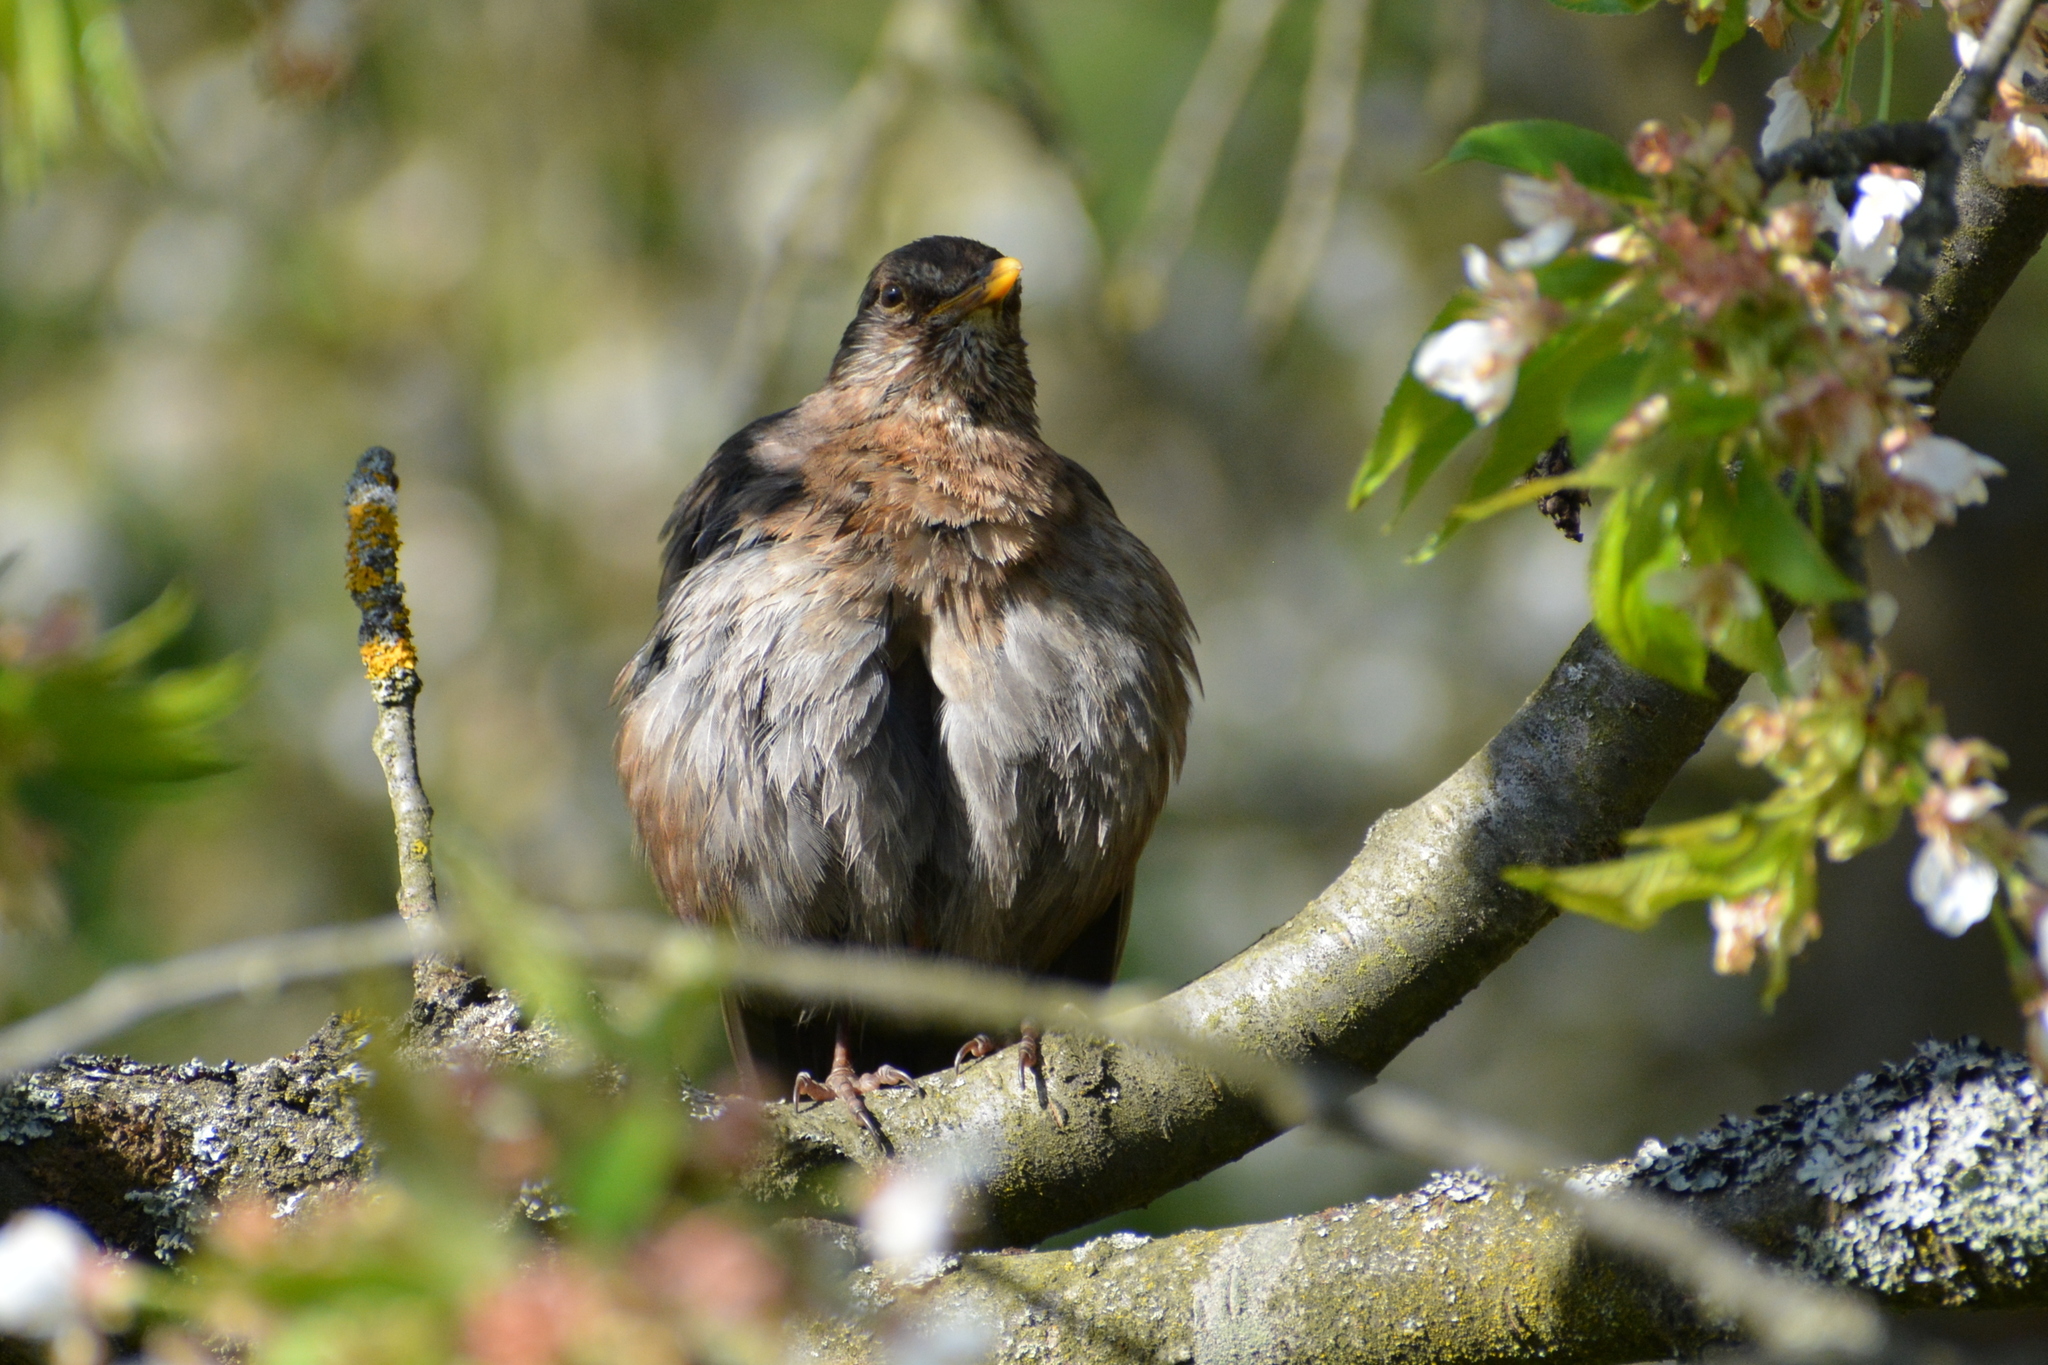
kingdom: Animalia
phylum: Chordata
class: Aves
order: Passeriformes
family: Turdidae
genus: Turdus
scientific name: Turdus merula
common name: Common blackbird
